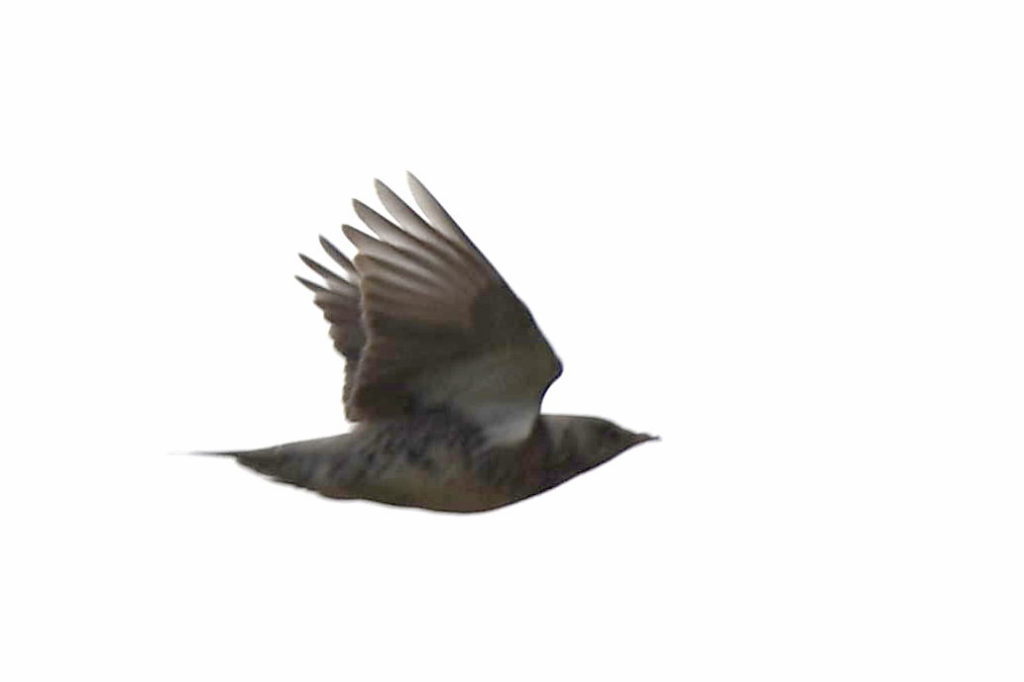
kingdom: Animalia
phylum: Chordata
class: Aves
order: Passeriformes
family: Turdidae
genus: Turdus
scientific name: Turdus pilaris
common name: Fieldfare
